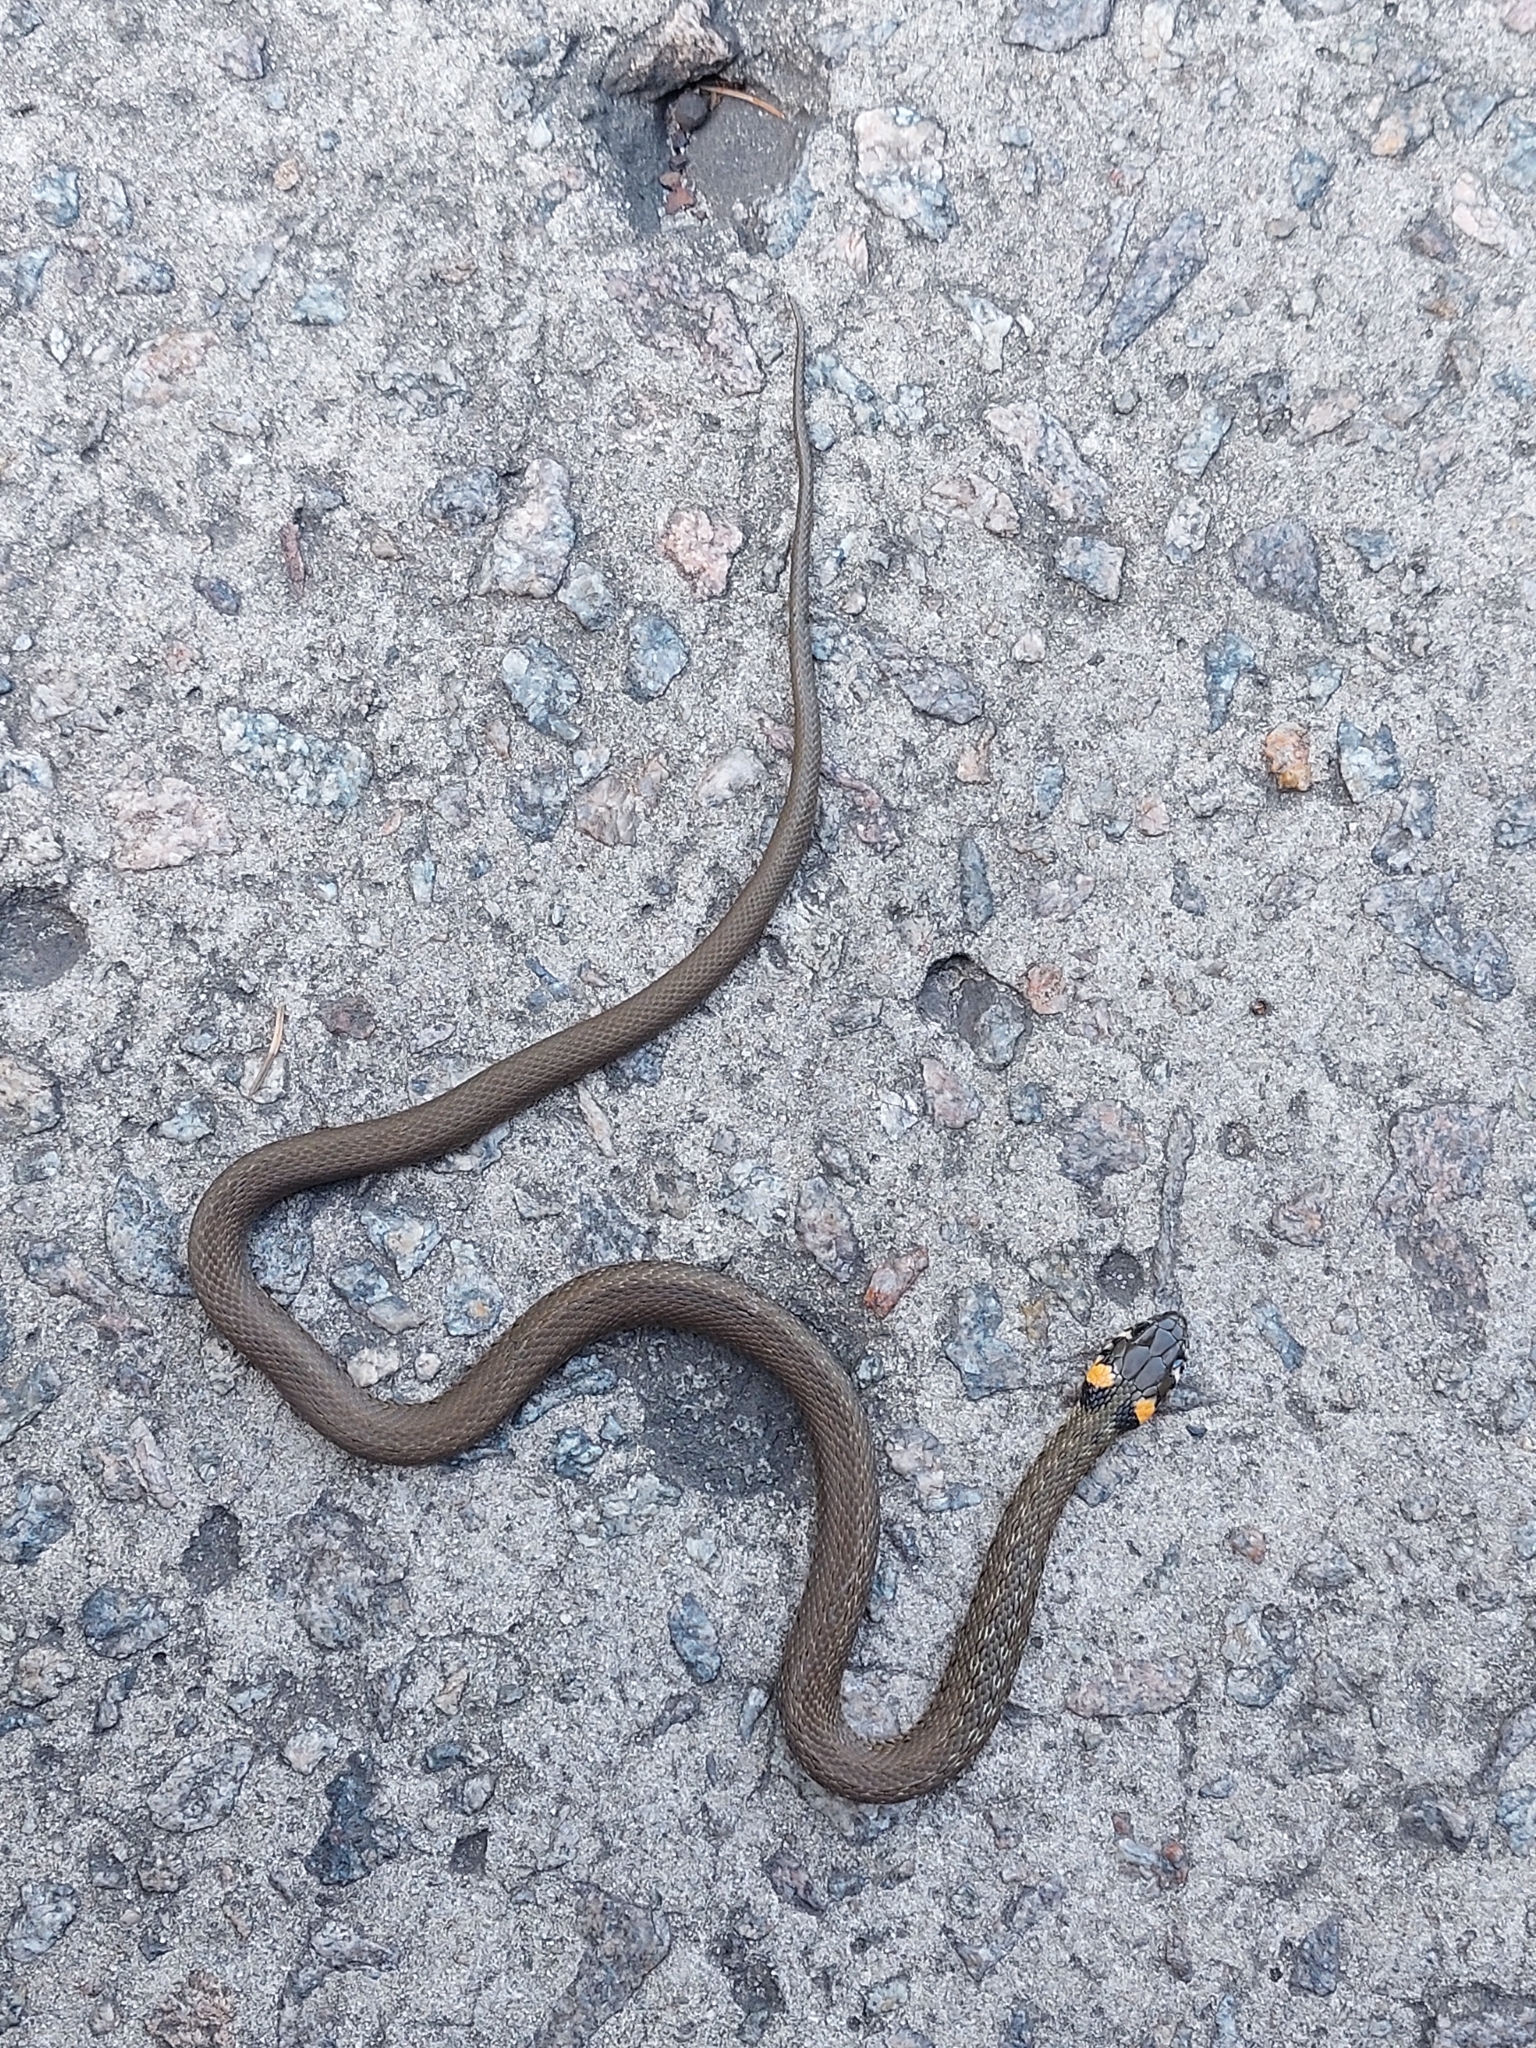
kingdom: Animalia
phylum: Chordata
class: Squamata
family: Colubridae
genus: Natrix
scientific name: Natrix natrix
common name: Grass snake
